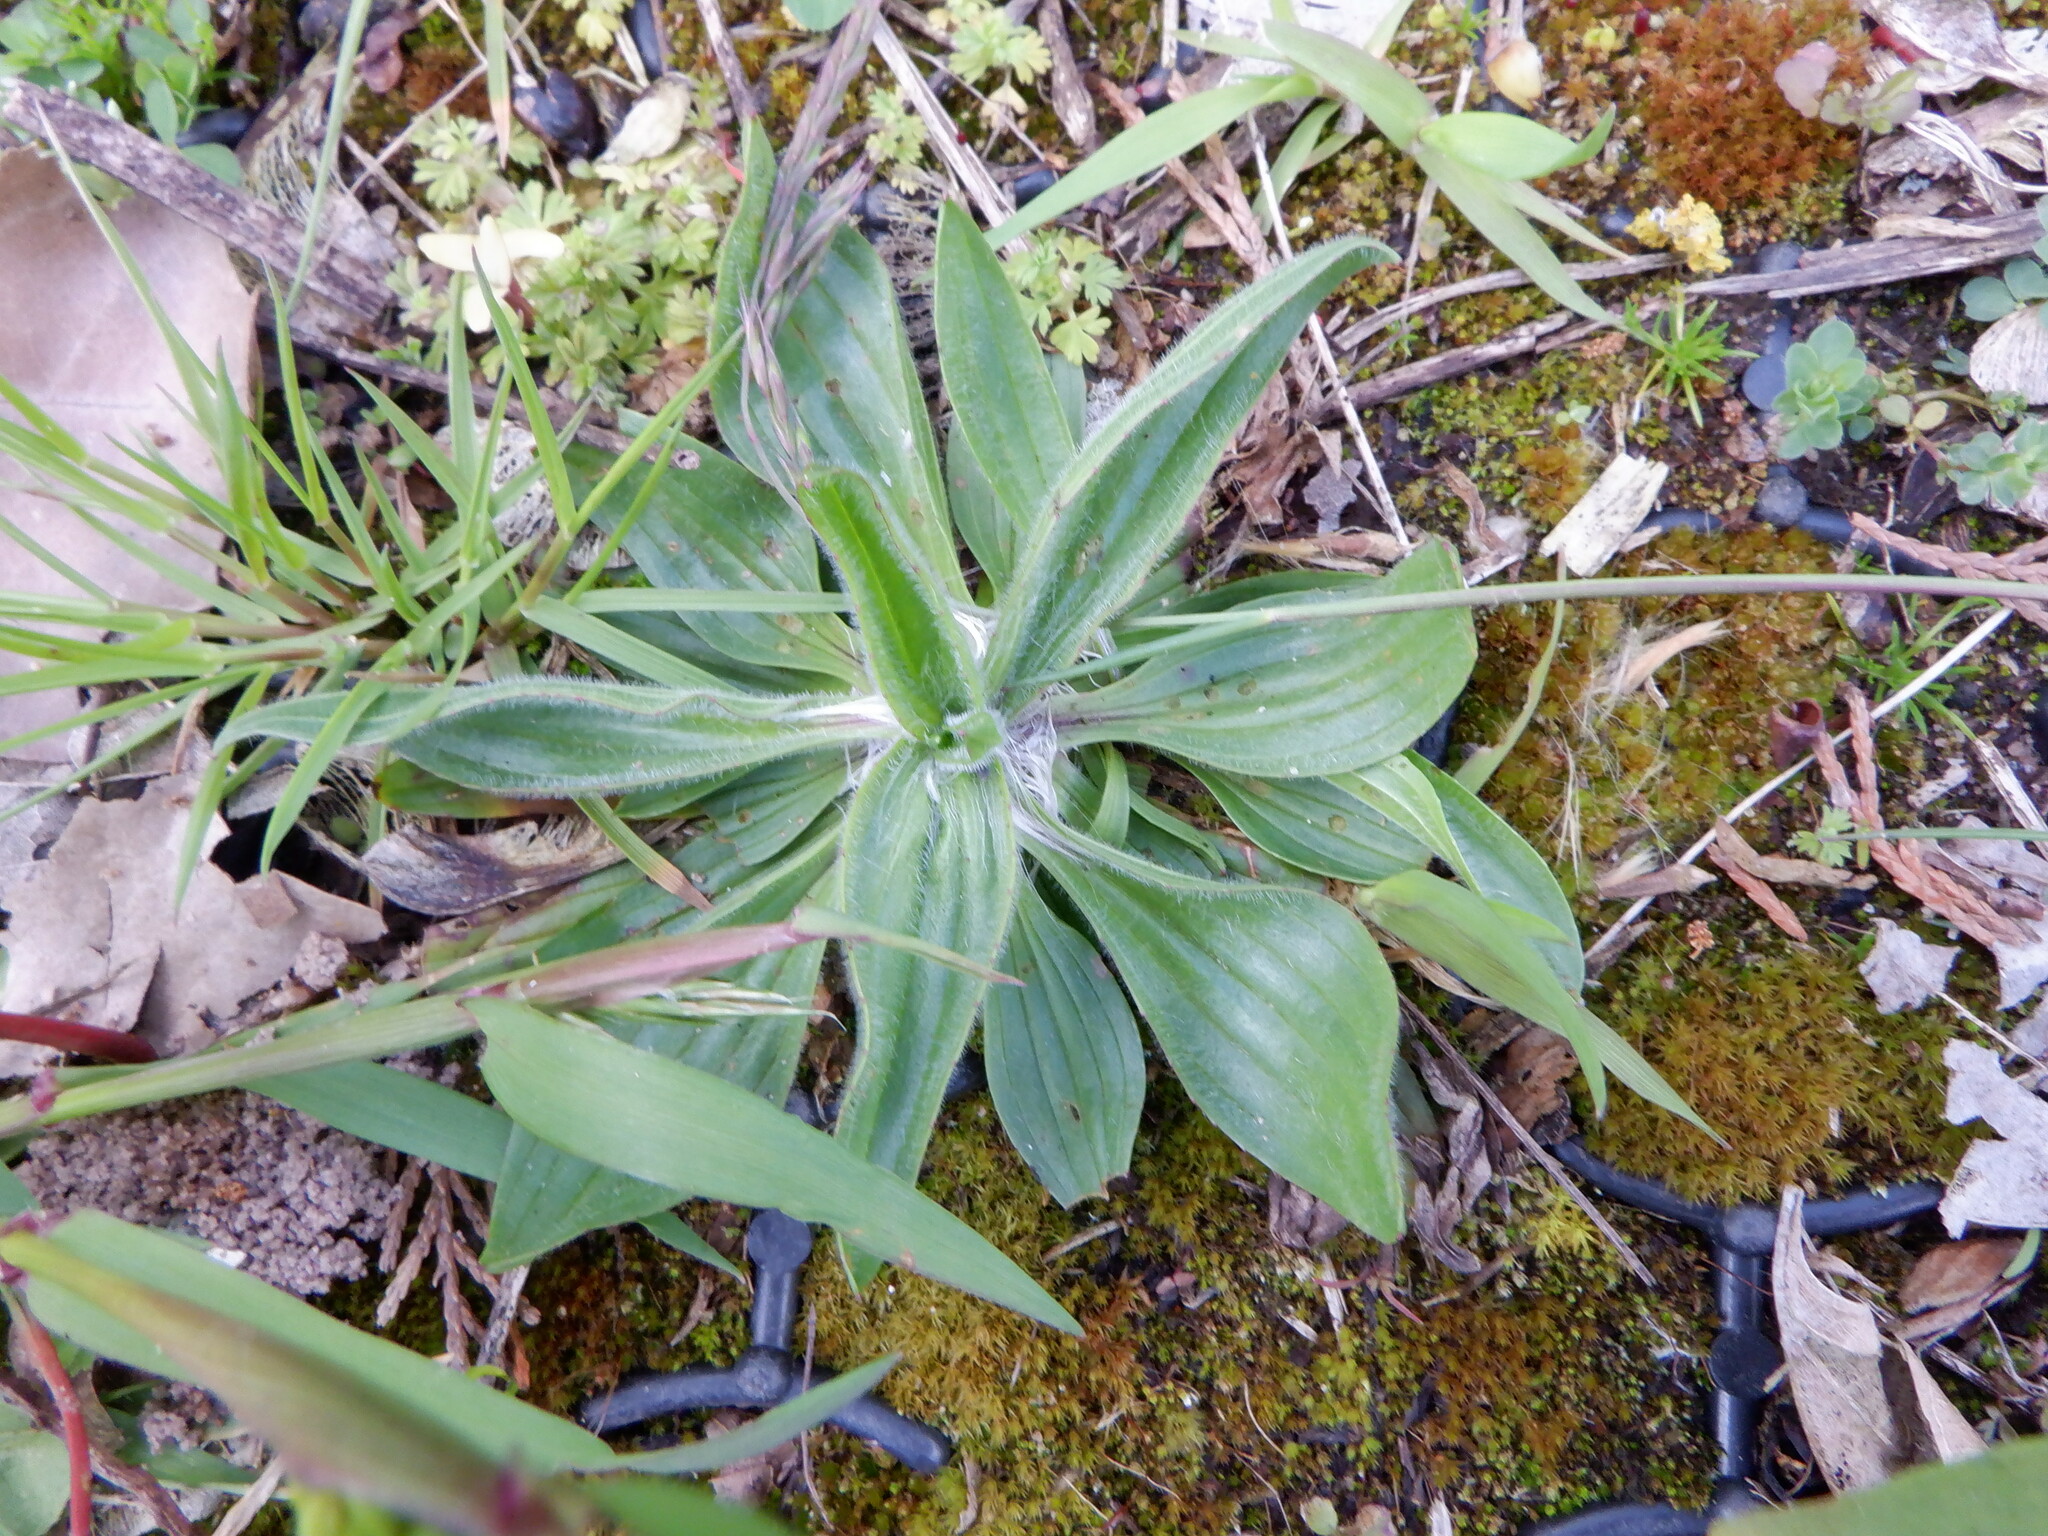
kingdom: Plantae
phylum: Tracheophyta
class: Magnoliopsida
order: Lamiales
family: Plantaginaceae
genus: Plantago
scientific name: Plantago lanceolata
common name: Ribwort plantain
